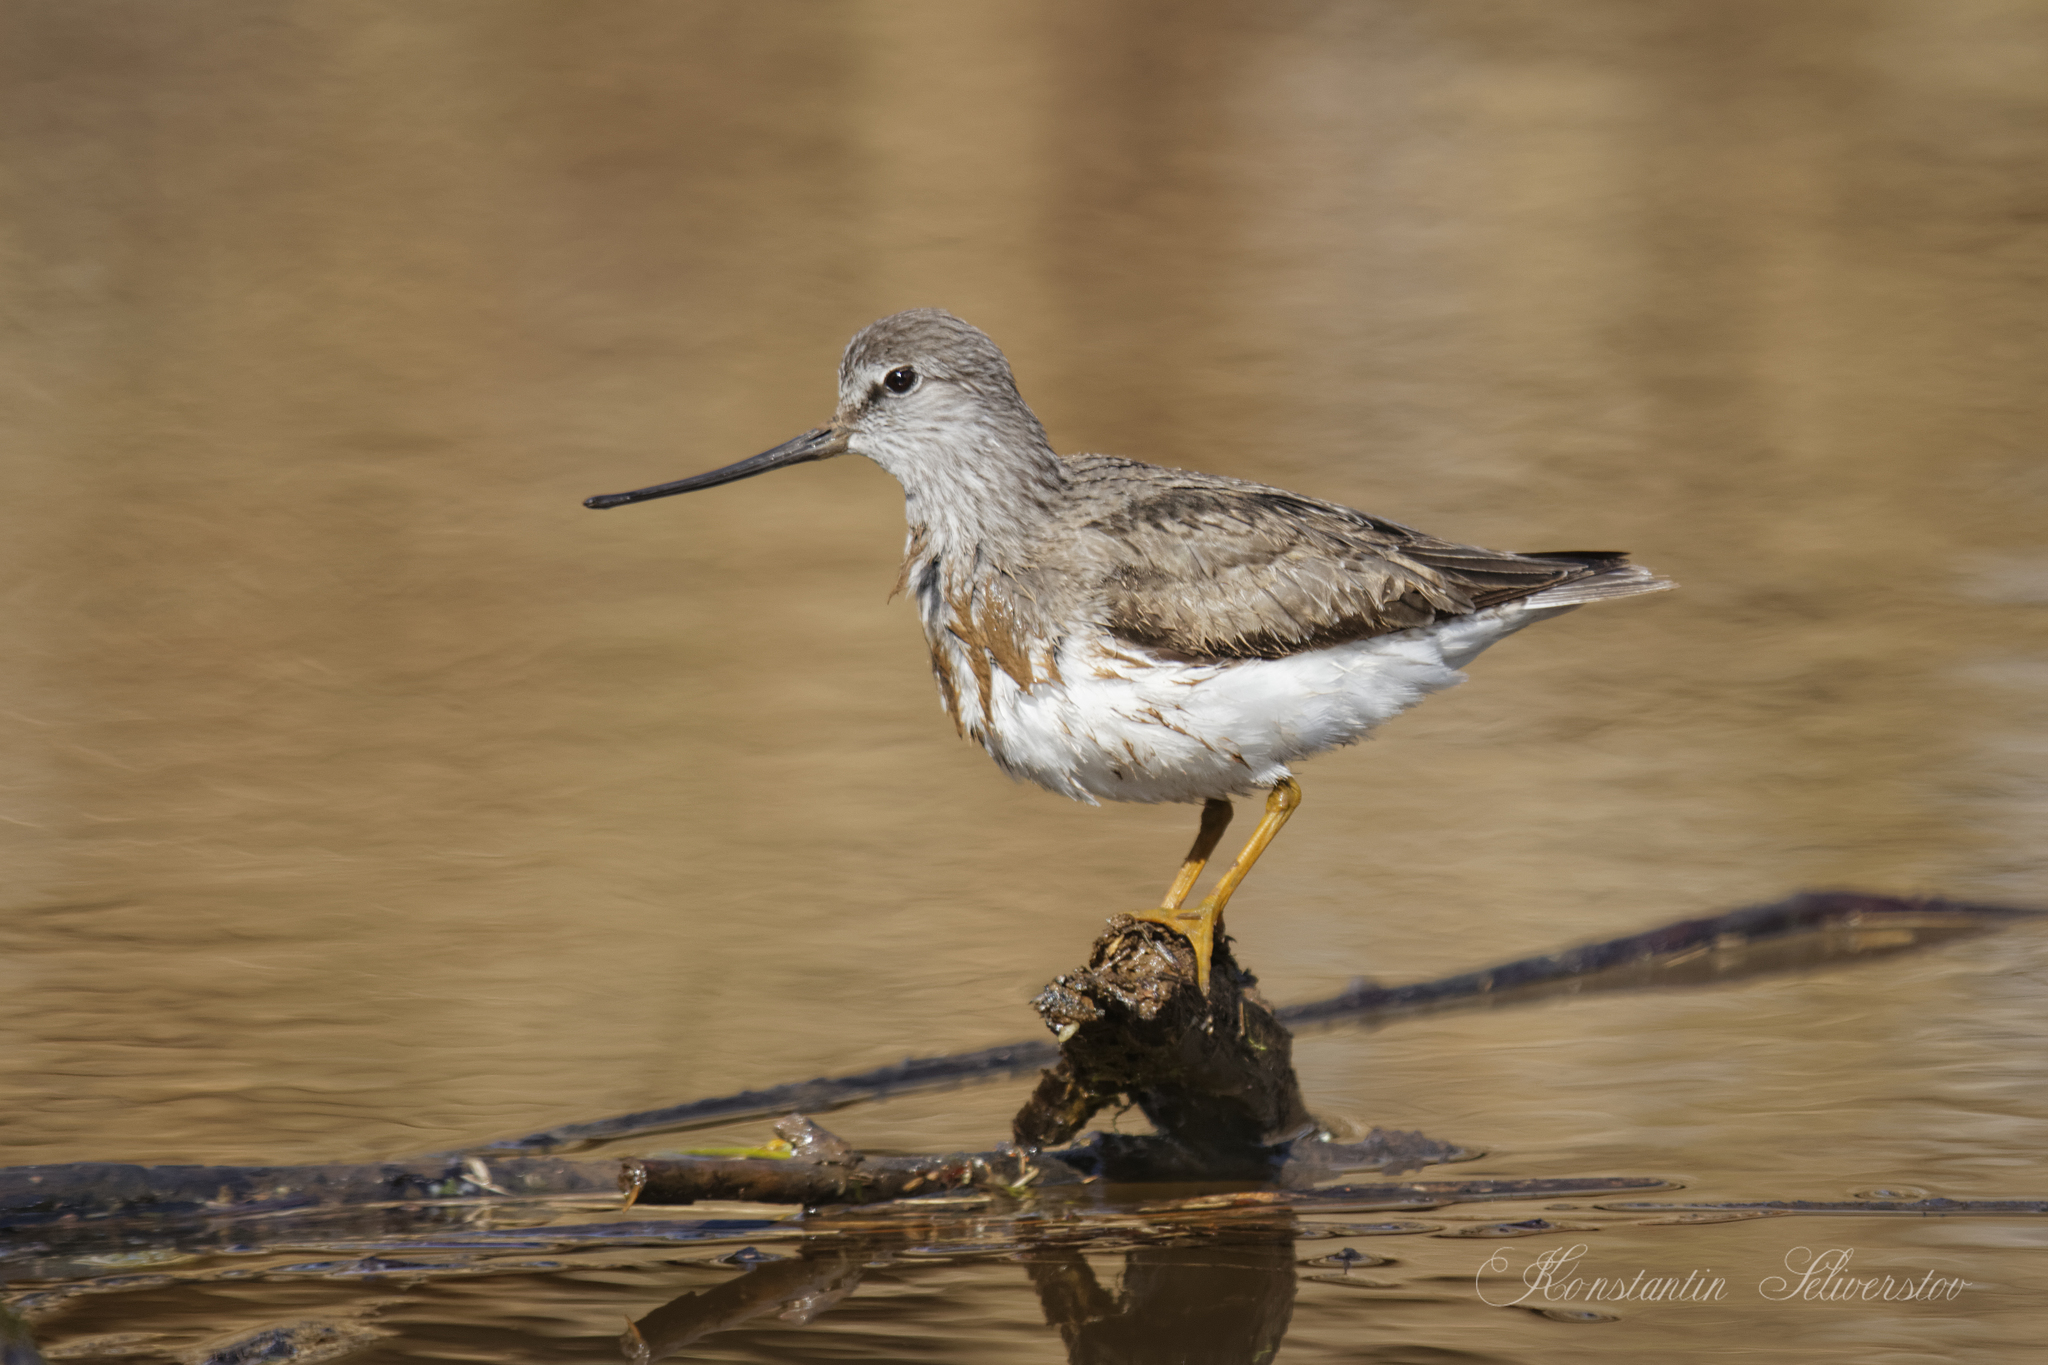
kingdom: Animalia
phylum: Chordata
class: Aves
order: Charadriiformes
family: Scolopacidae
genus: Xenus
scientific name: Xenus cinereus
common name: Terek sandpiper
